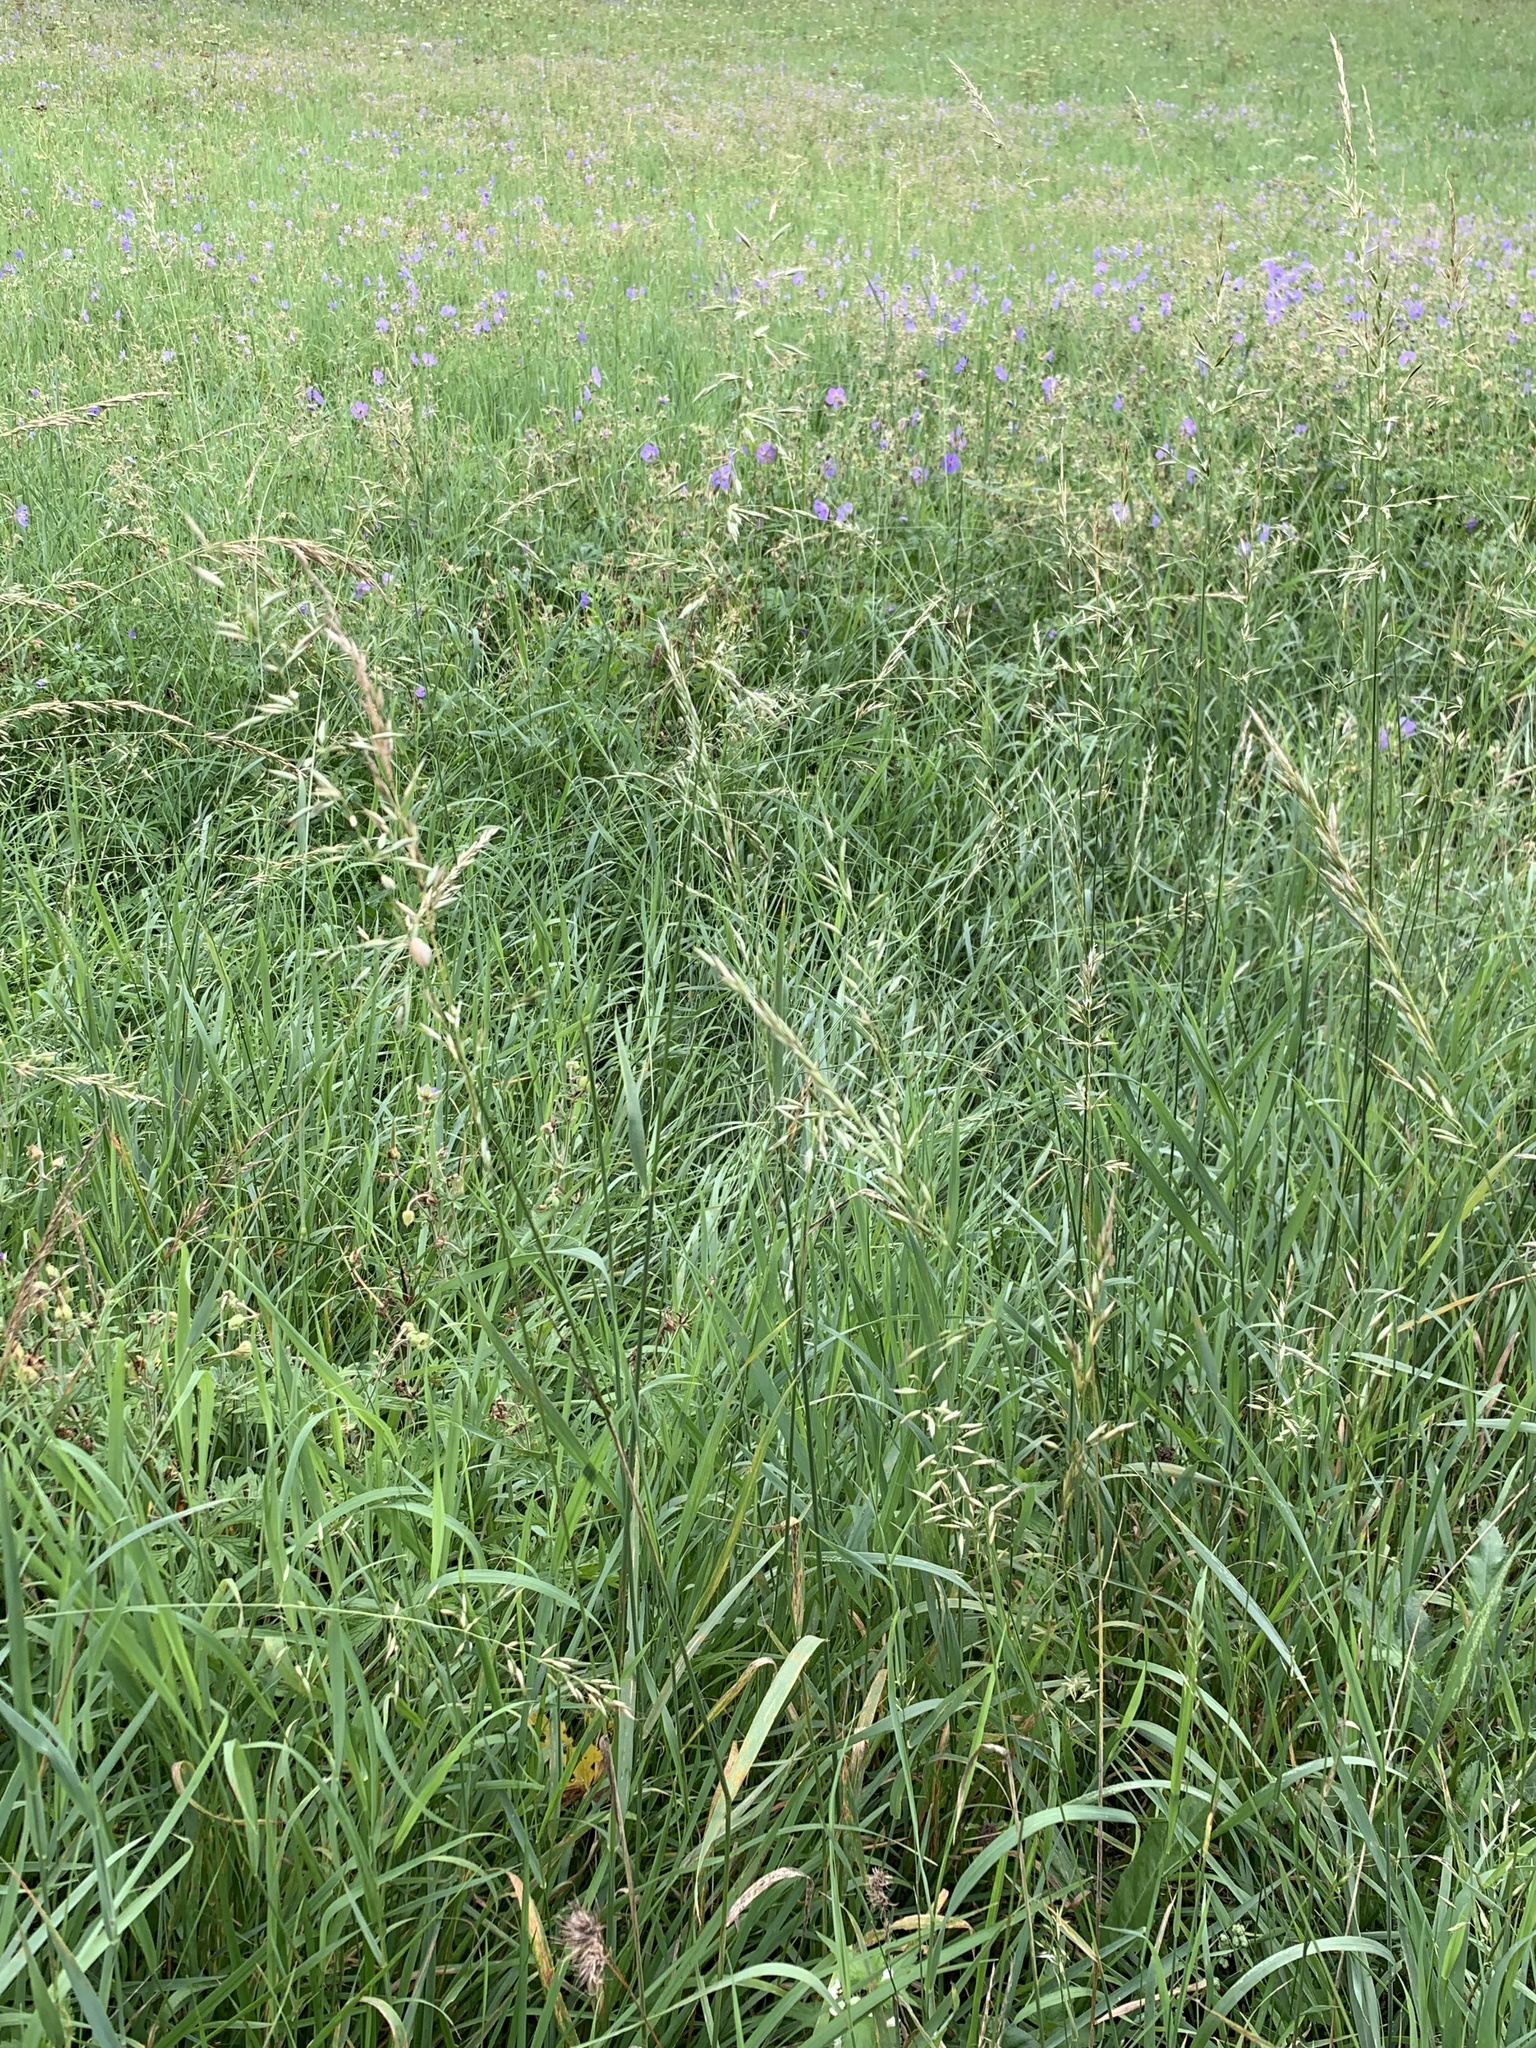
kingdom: Plantae
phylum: Tracheophyta
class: Liliopsida
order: Poales
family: Poaceae
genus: Arrhenatherum
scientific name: Arrhenatherum elatius
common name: Tall oatgrass
